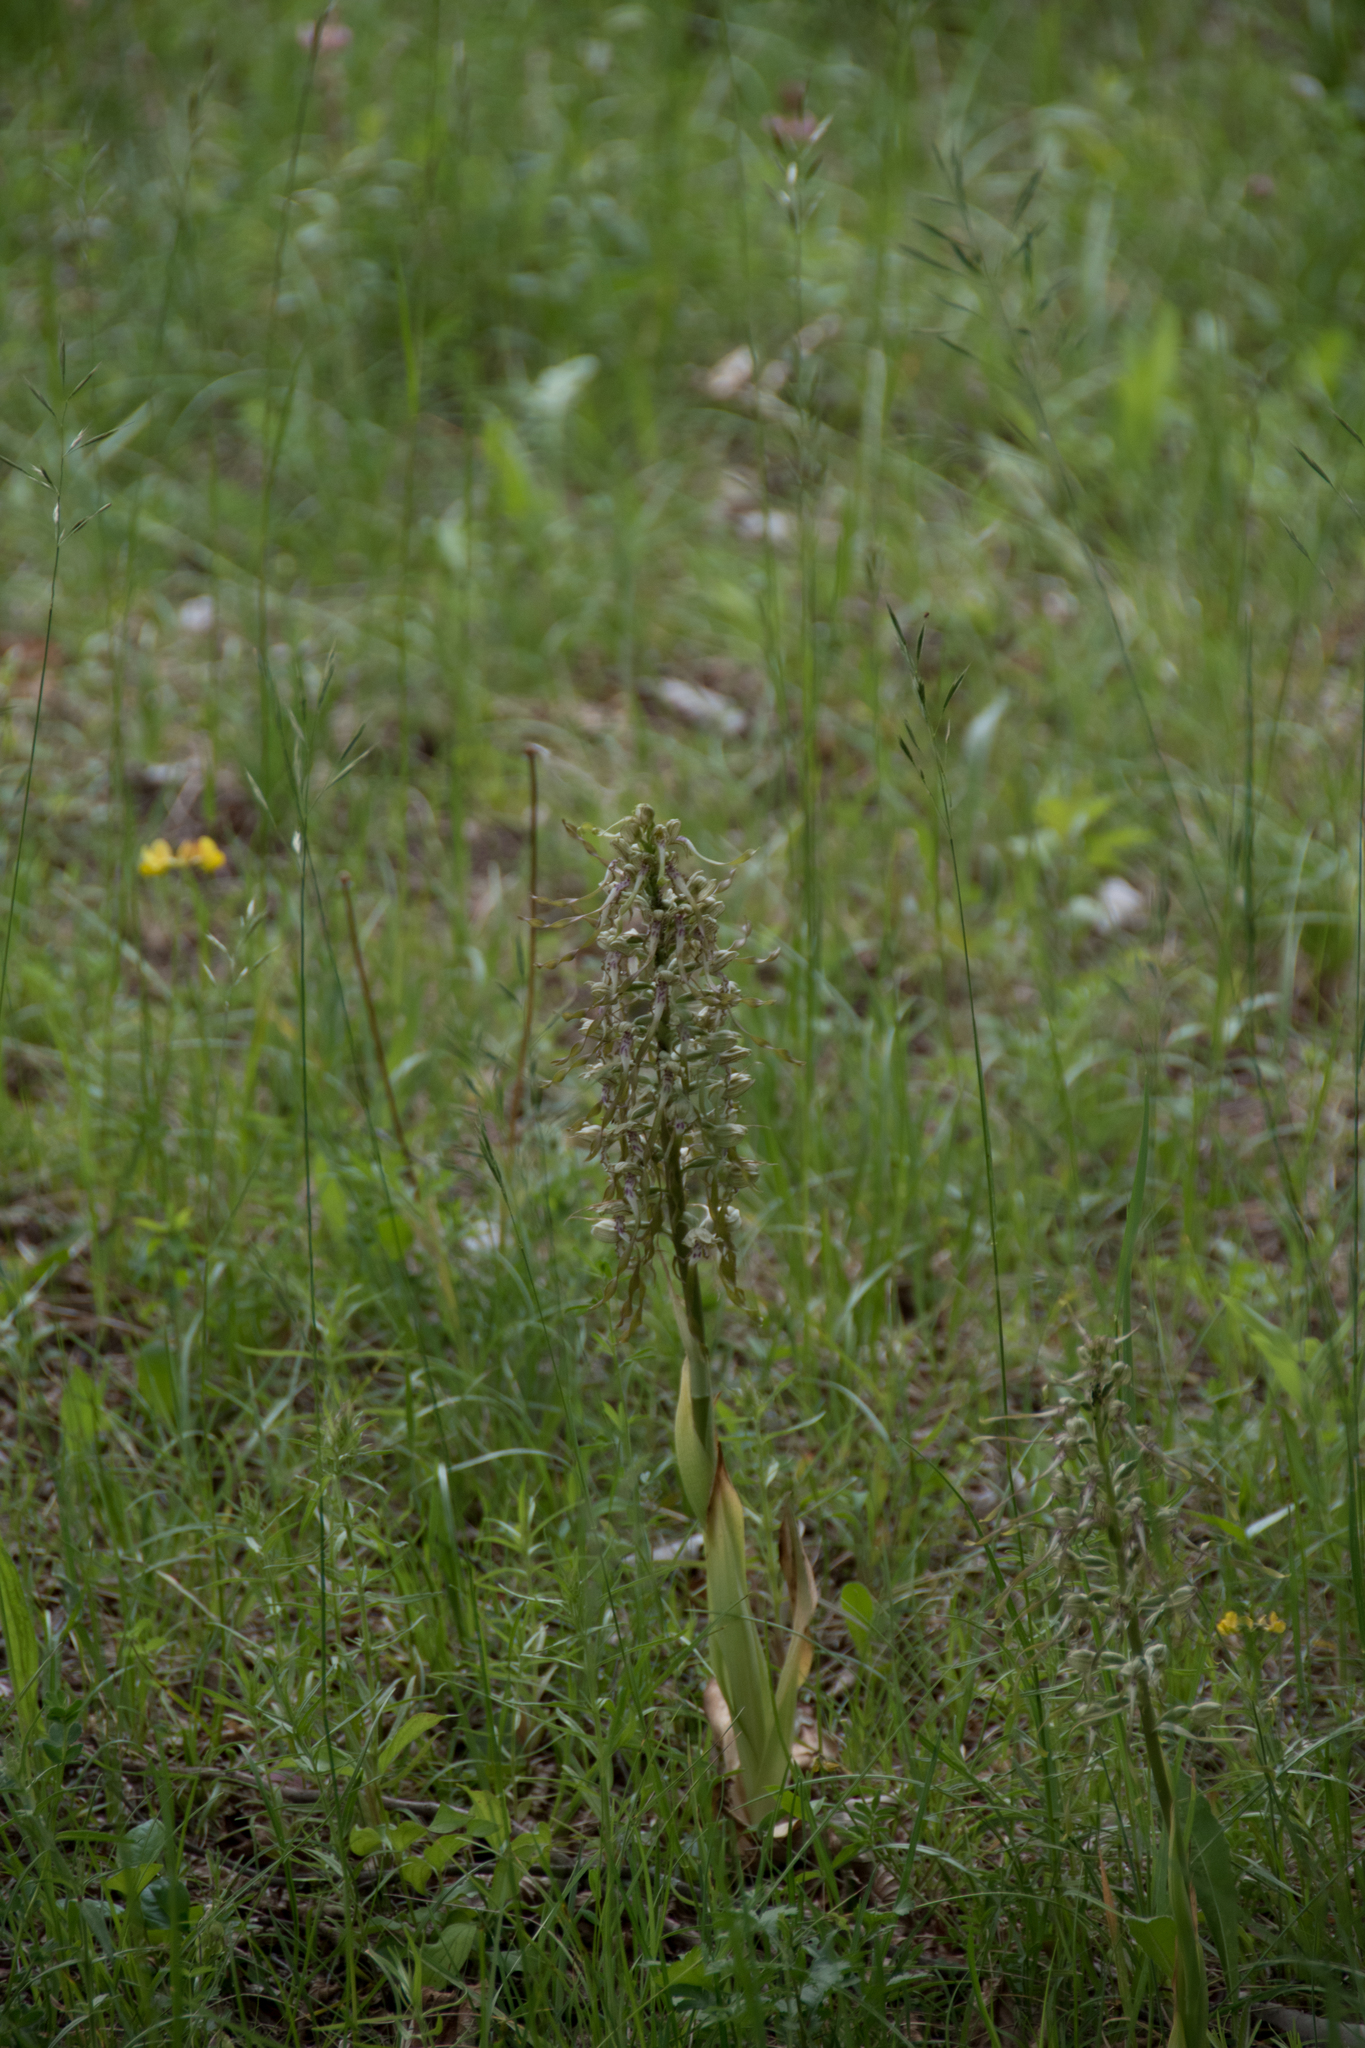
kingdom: Plantae
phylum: Tracheophyta
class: Liliopsida
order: Asparagales
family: Orchidaceae
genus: Himantoglossum
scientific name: Himantoglossum hircinum
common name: Lizard orchid
